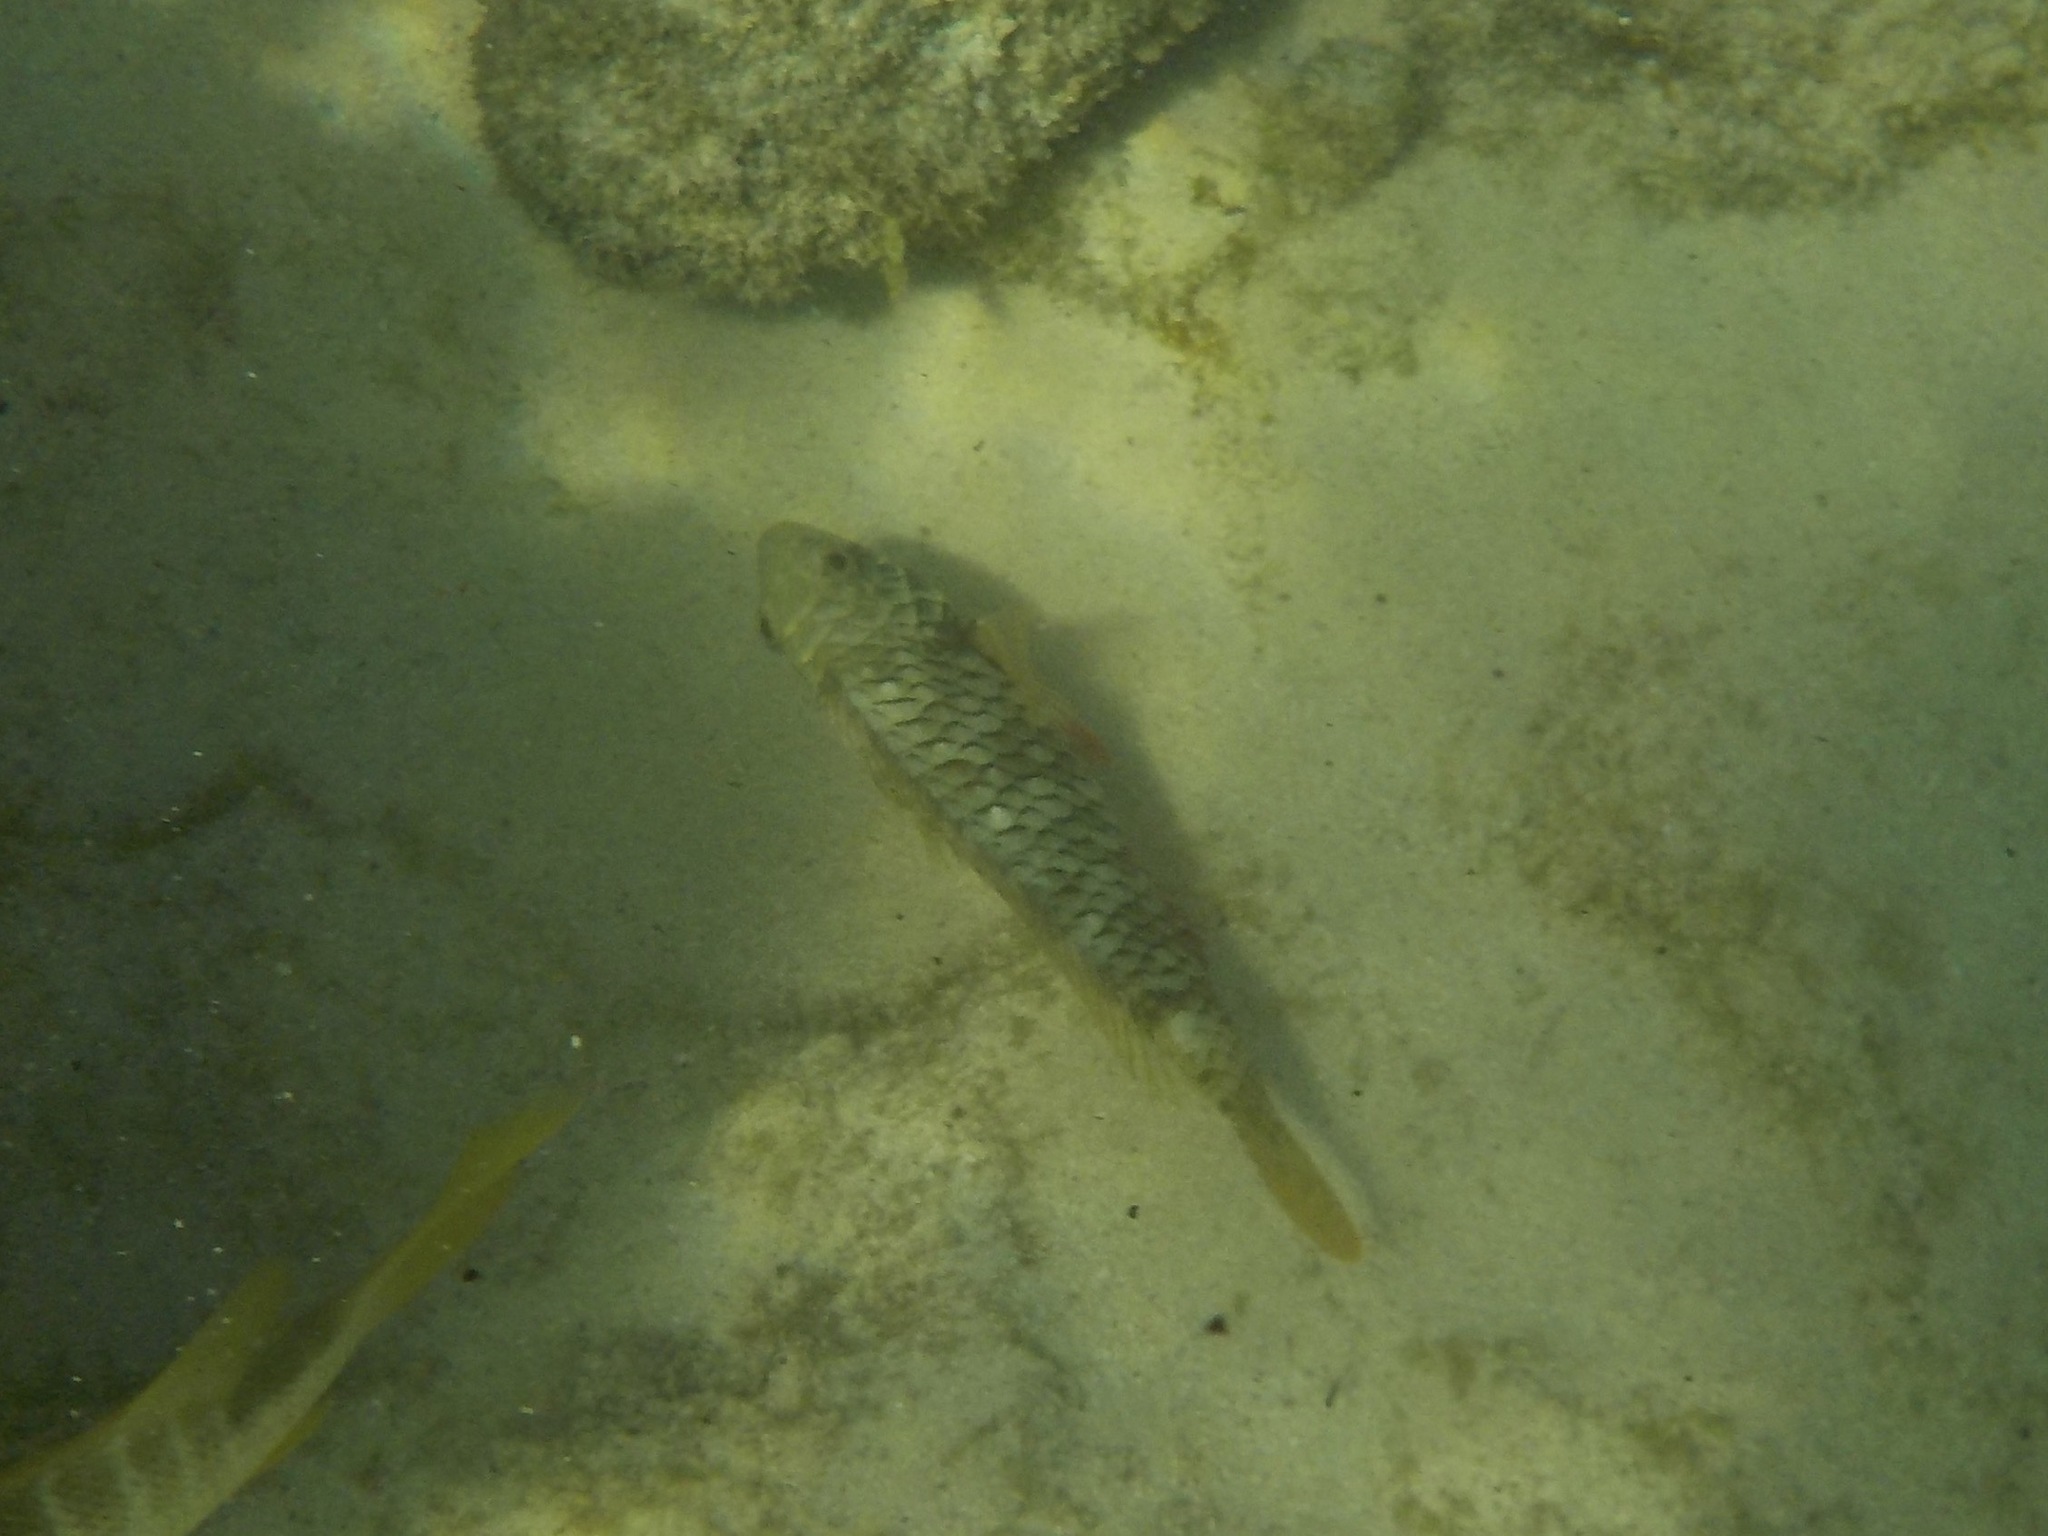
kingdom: Animalia
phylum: Chordata
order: Perciformes
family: Scaridae
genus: Sparisoma
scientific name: Sparisoma rubripinne
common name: Redfin parrotfish
